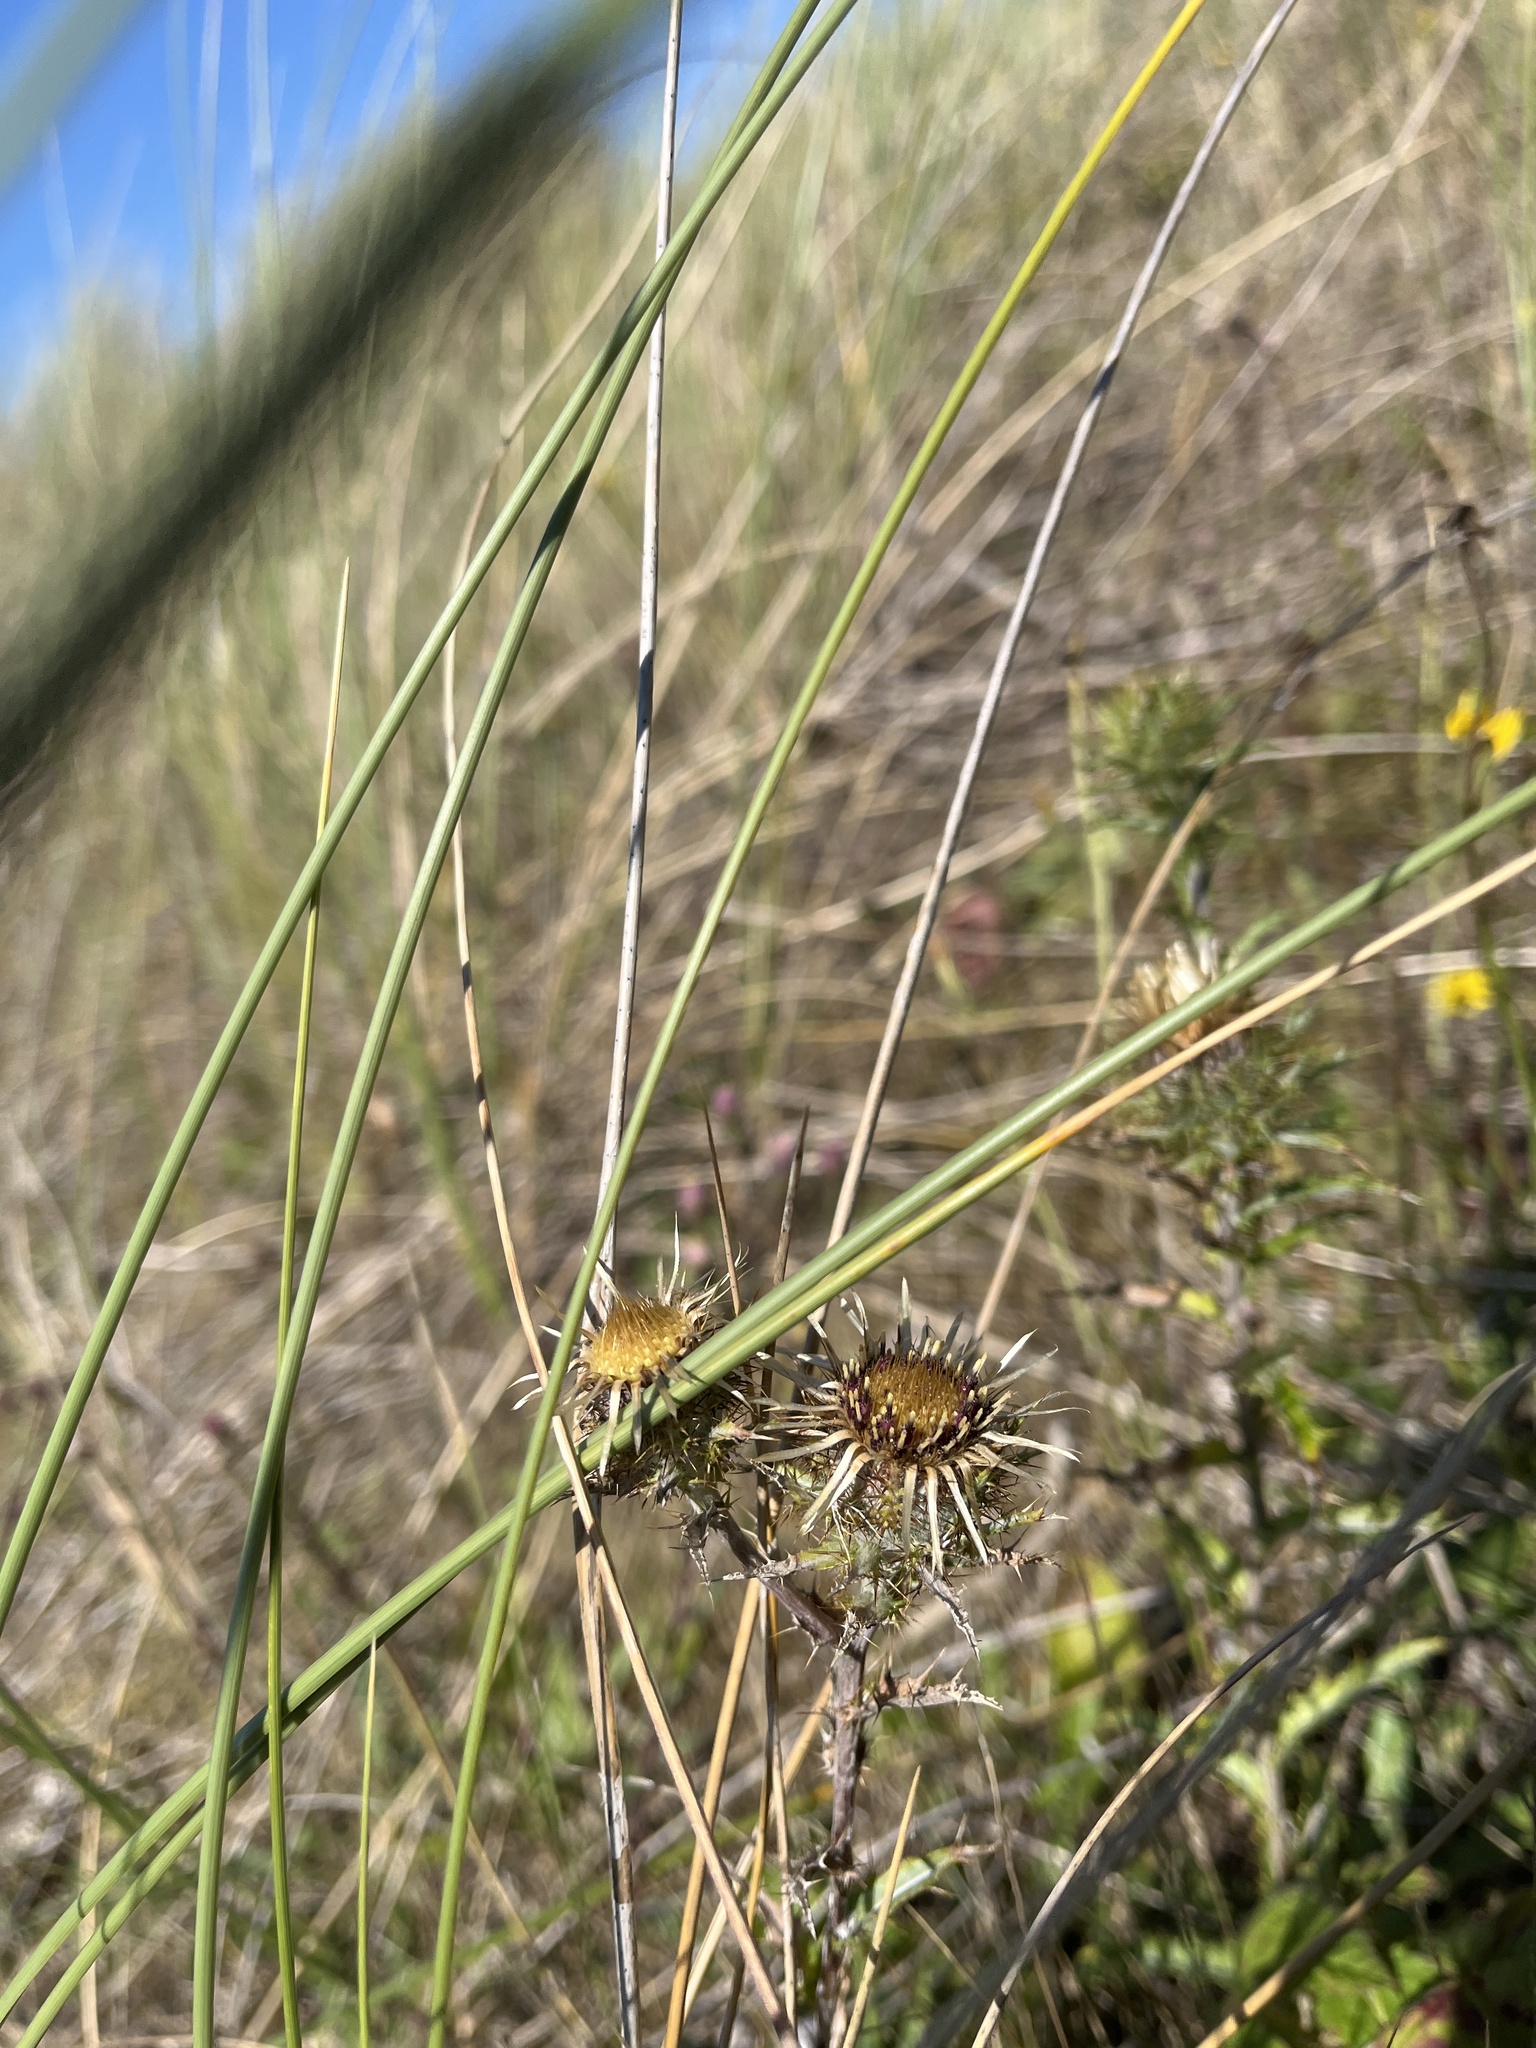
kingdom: Plantae
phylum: Tracheophyta
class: Magnoliopsida
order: Asterales
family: Asteraceae
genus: Carlina
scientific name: Carlina vulgaris
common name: Carline thistle
